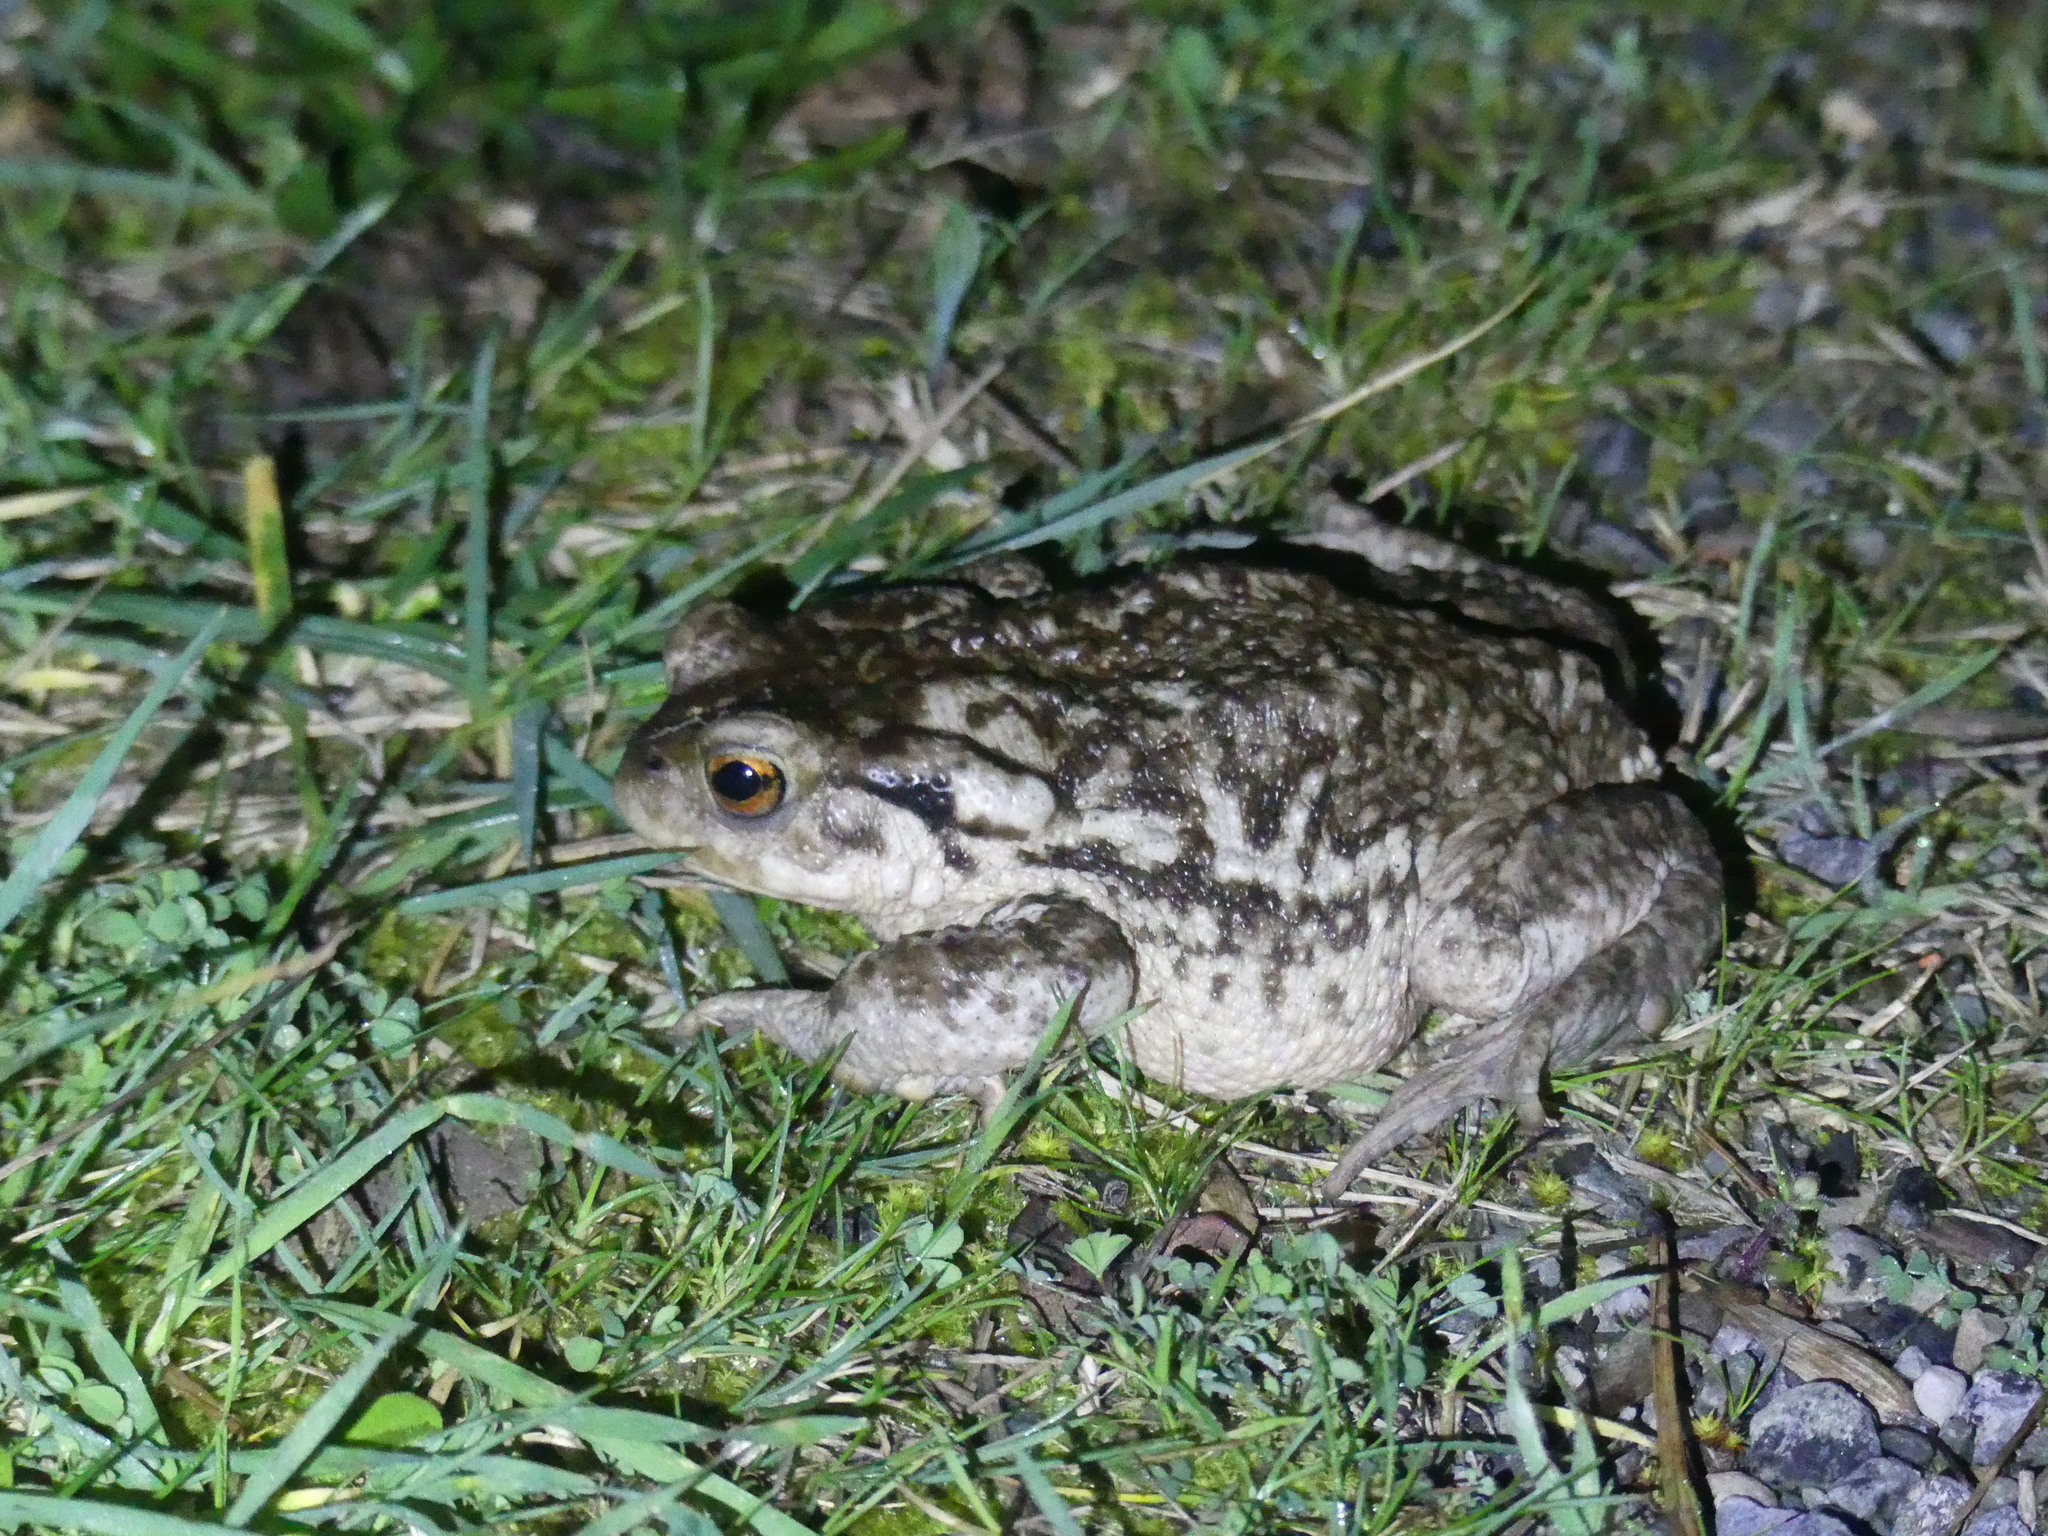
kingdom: Animalia
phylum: Chordata
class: Amphibia
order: Anura
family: Bufonidae
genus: Bufo
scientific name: Bufo spinosus
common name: Western common toad
